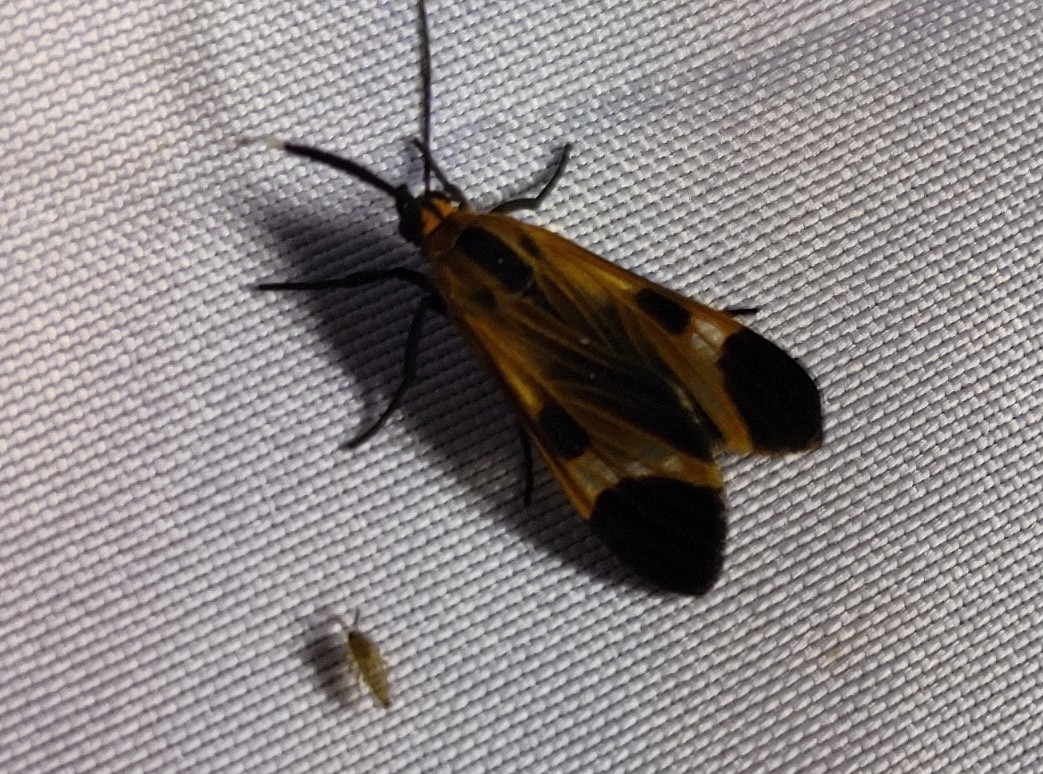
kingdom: Animalia
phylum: Arthropoda
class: Insecta
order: Lepidoptera
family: Erebidae
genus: Dycladia
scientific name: Dycladia lucetius
